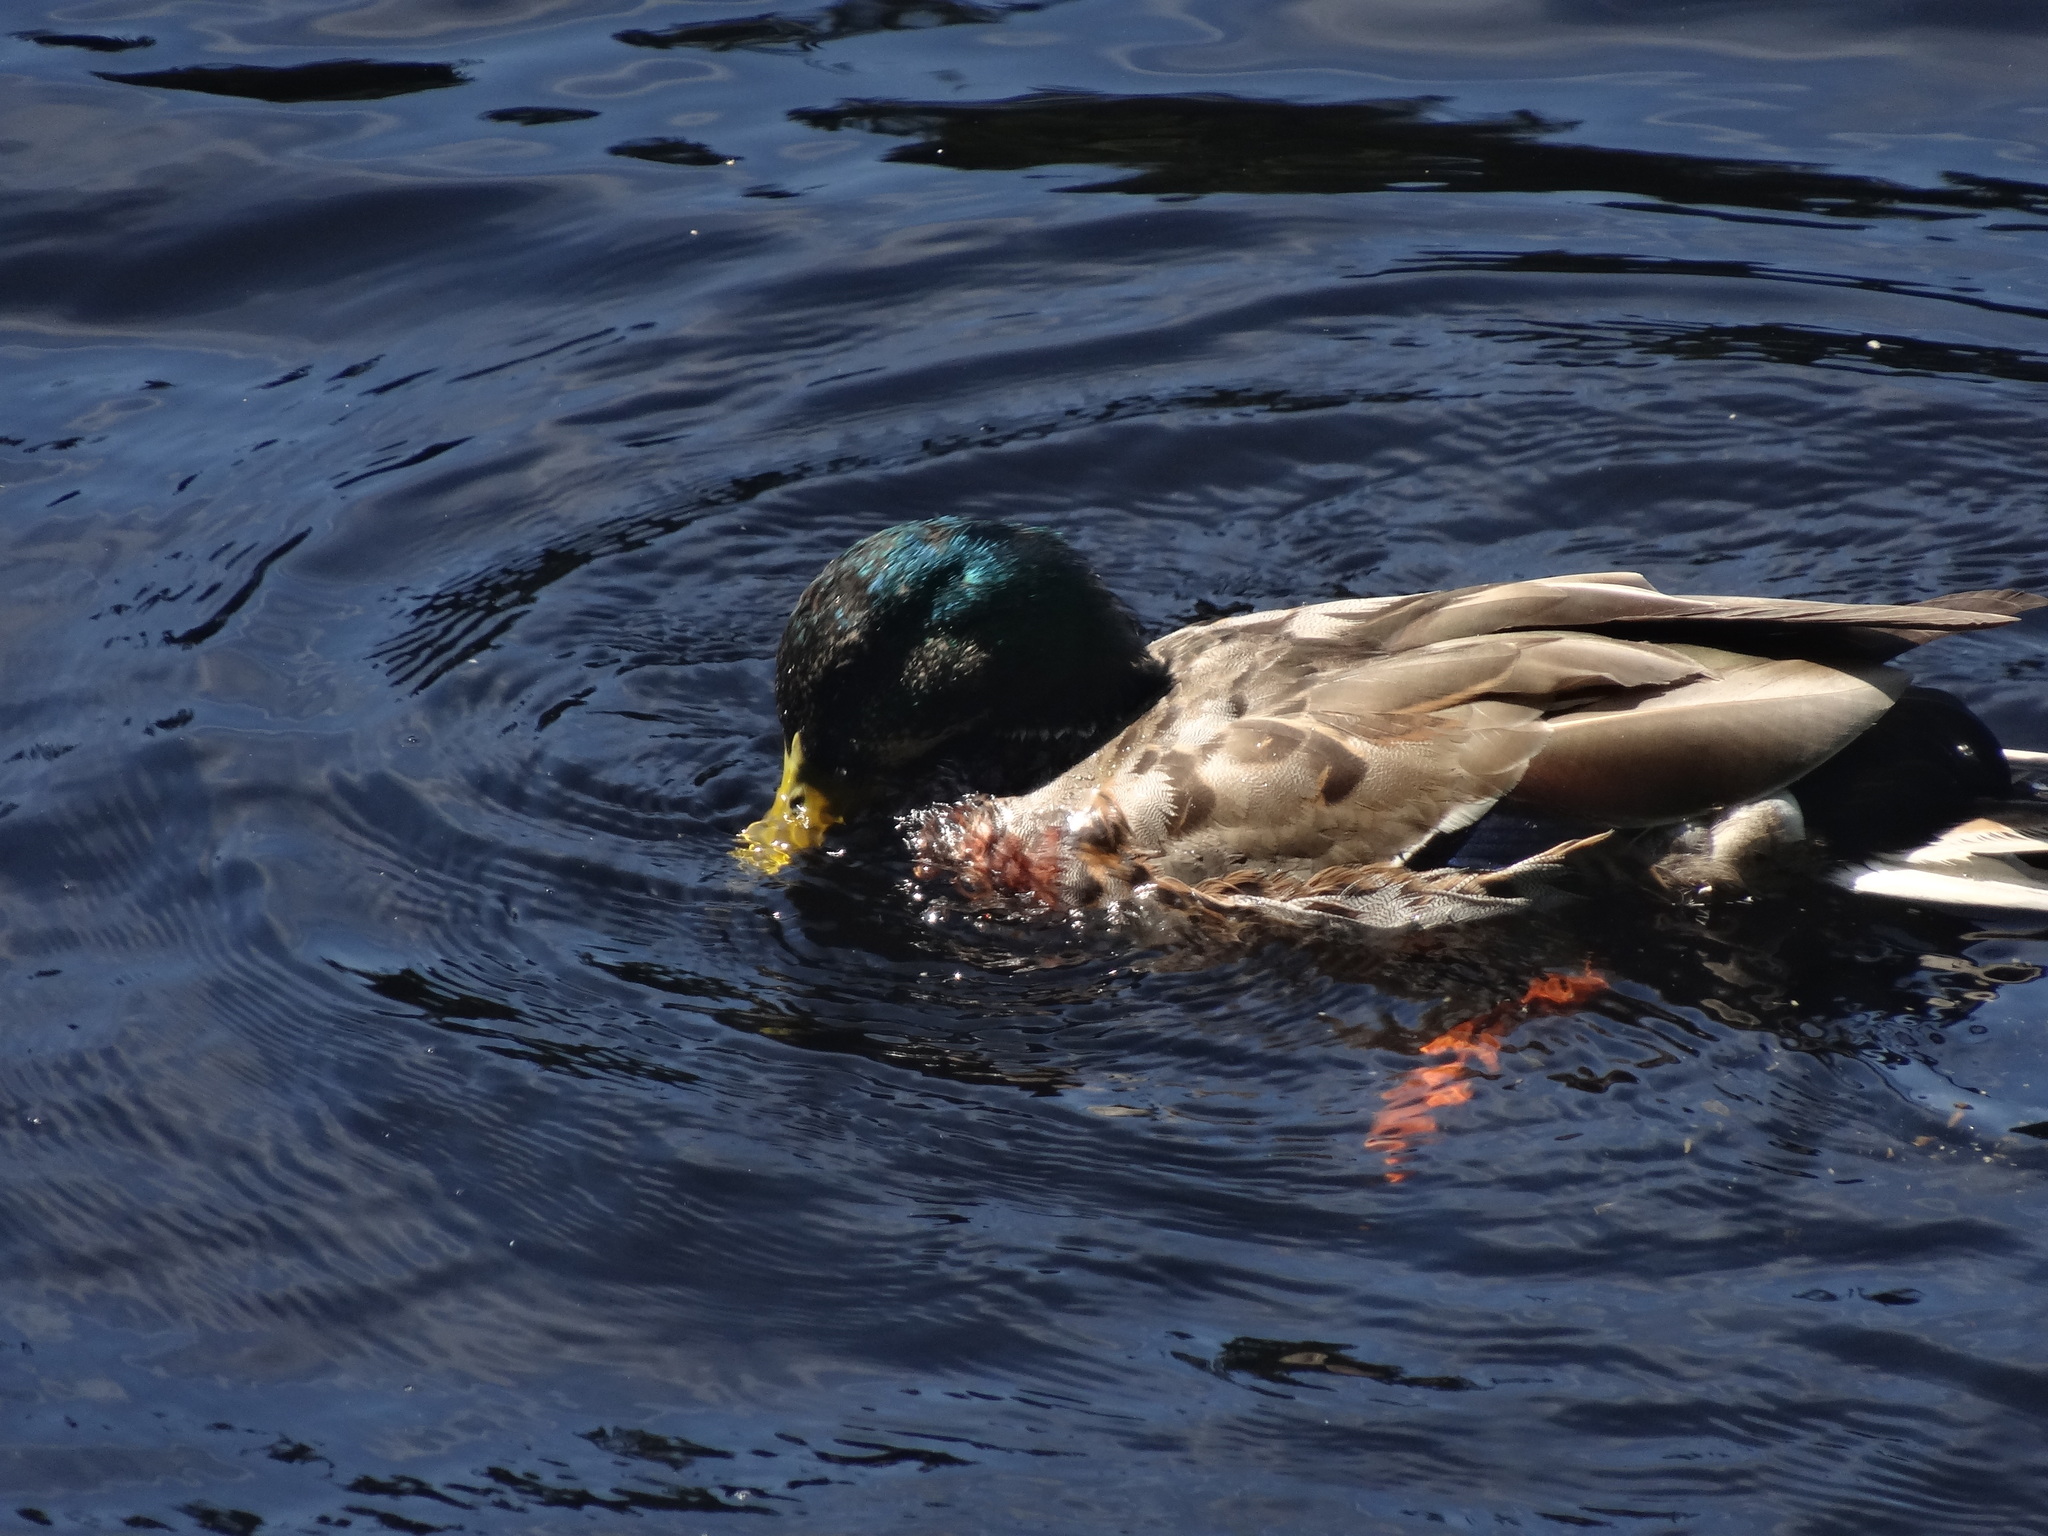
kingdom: Animalia
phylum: Chordata
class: Aves
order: Anseriformes
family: Anatidae
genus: Anas
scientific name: Anas platyrhynchos
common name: Mallard
